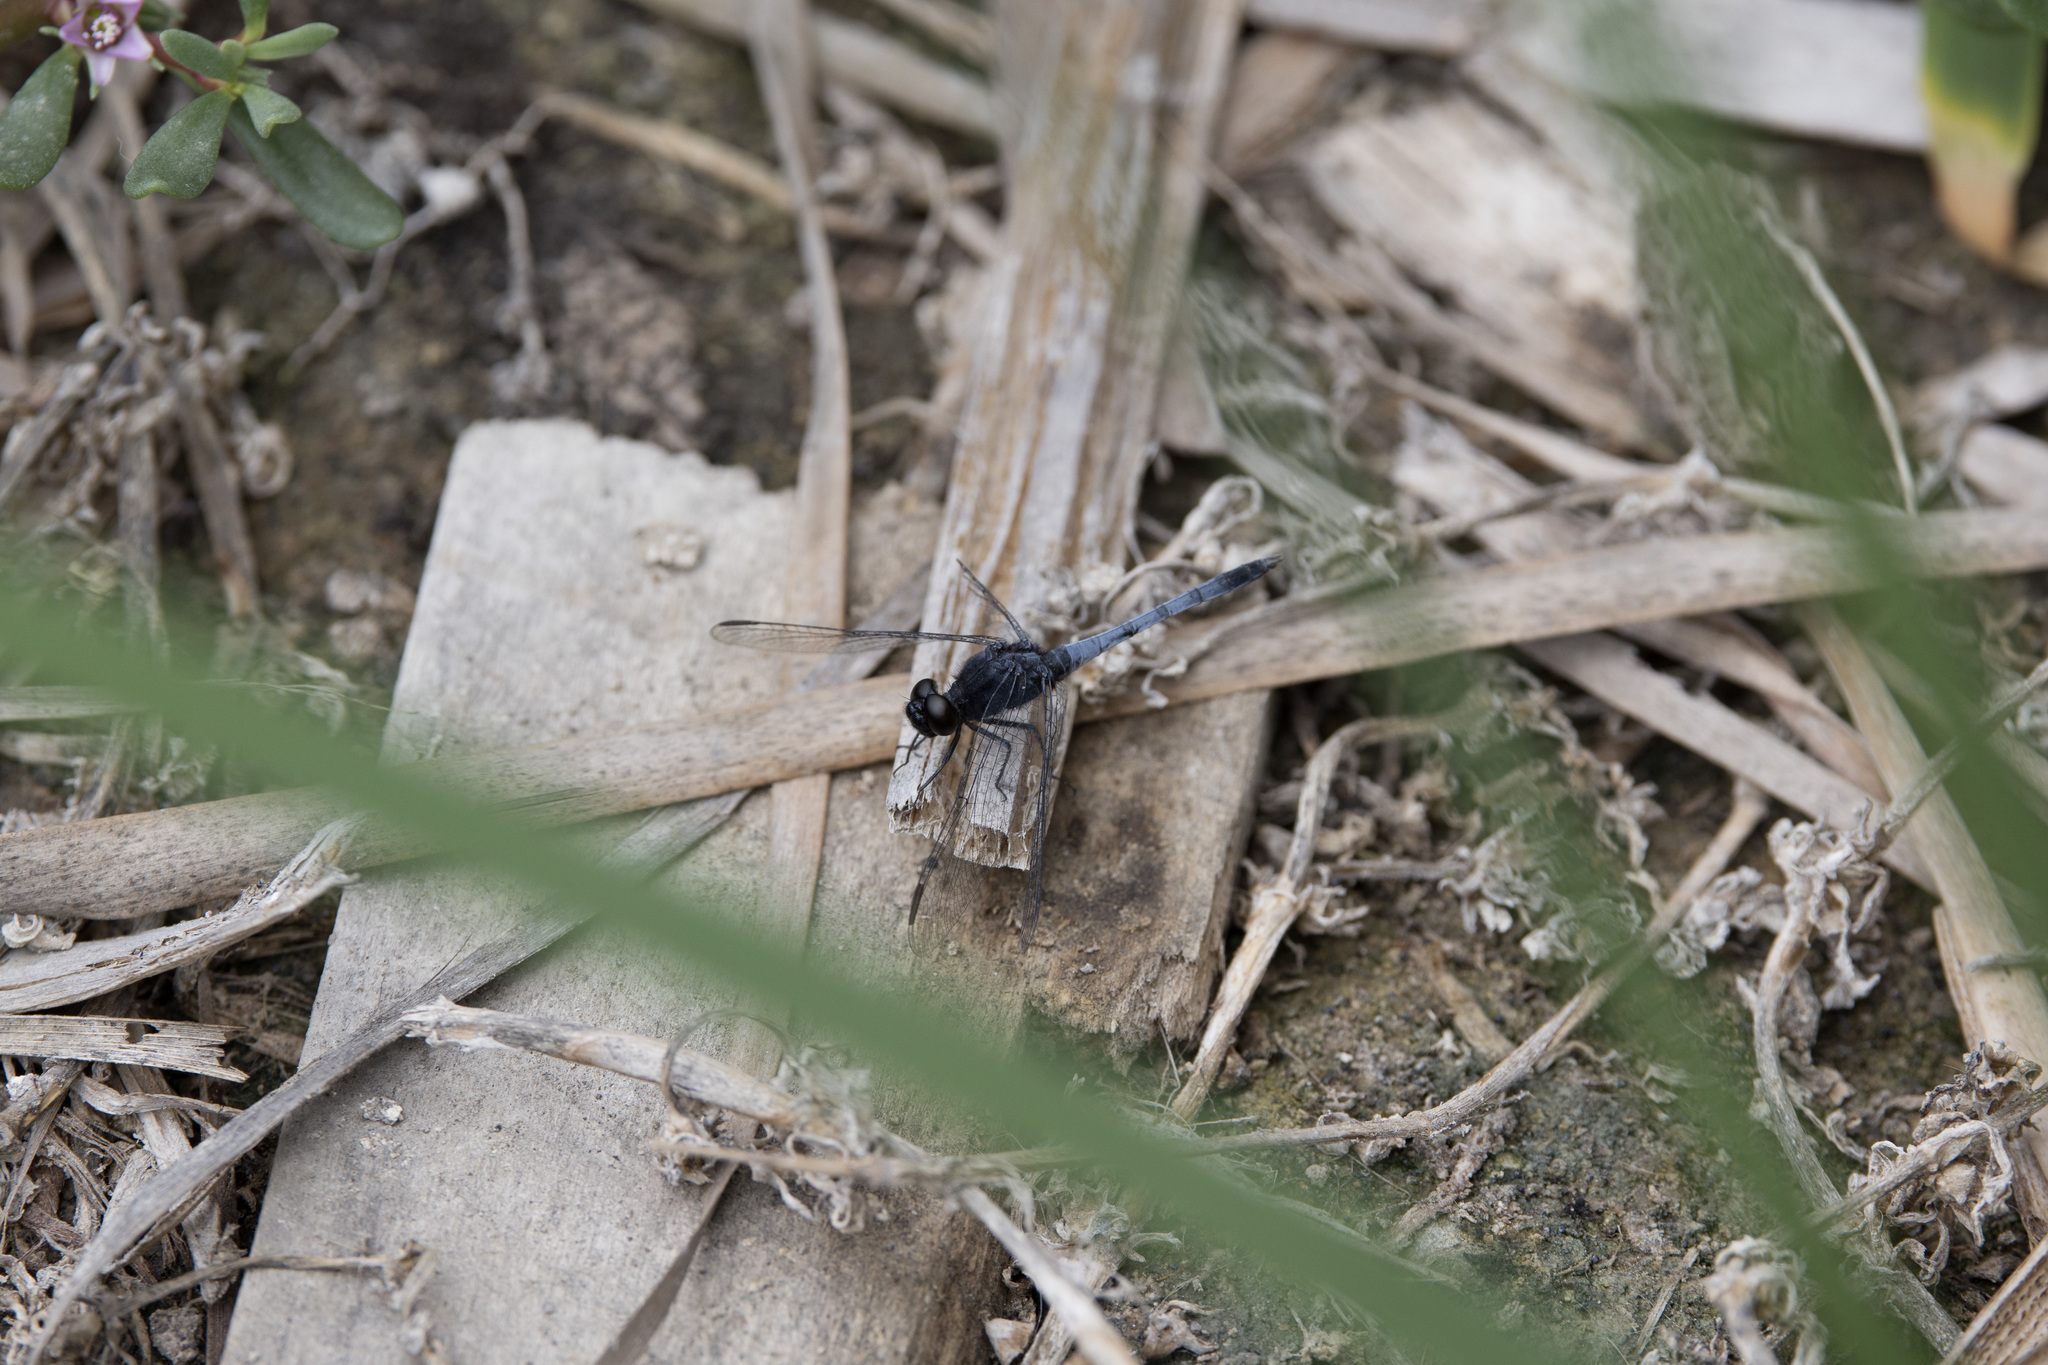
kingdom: Animalia
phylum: Arthropoda
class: Insecta
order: Odonata
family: Libellulidae
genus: Erythrodiplax
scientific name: Erythrodiplax cleopatra
